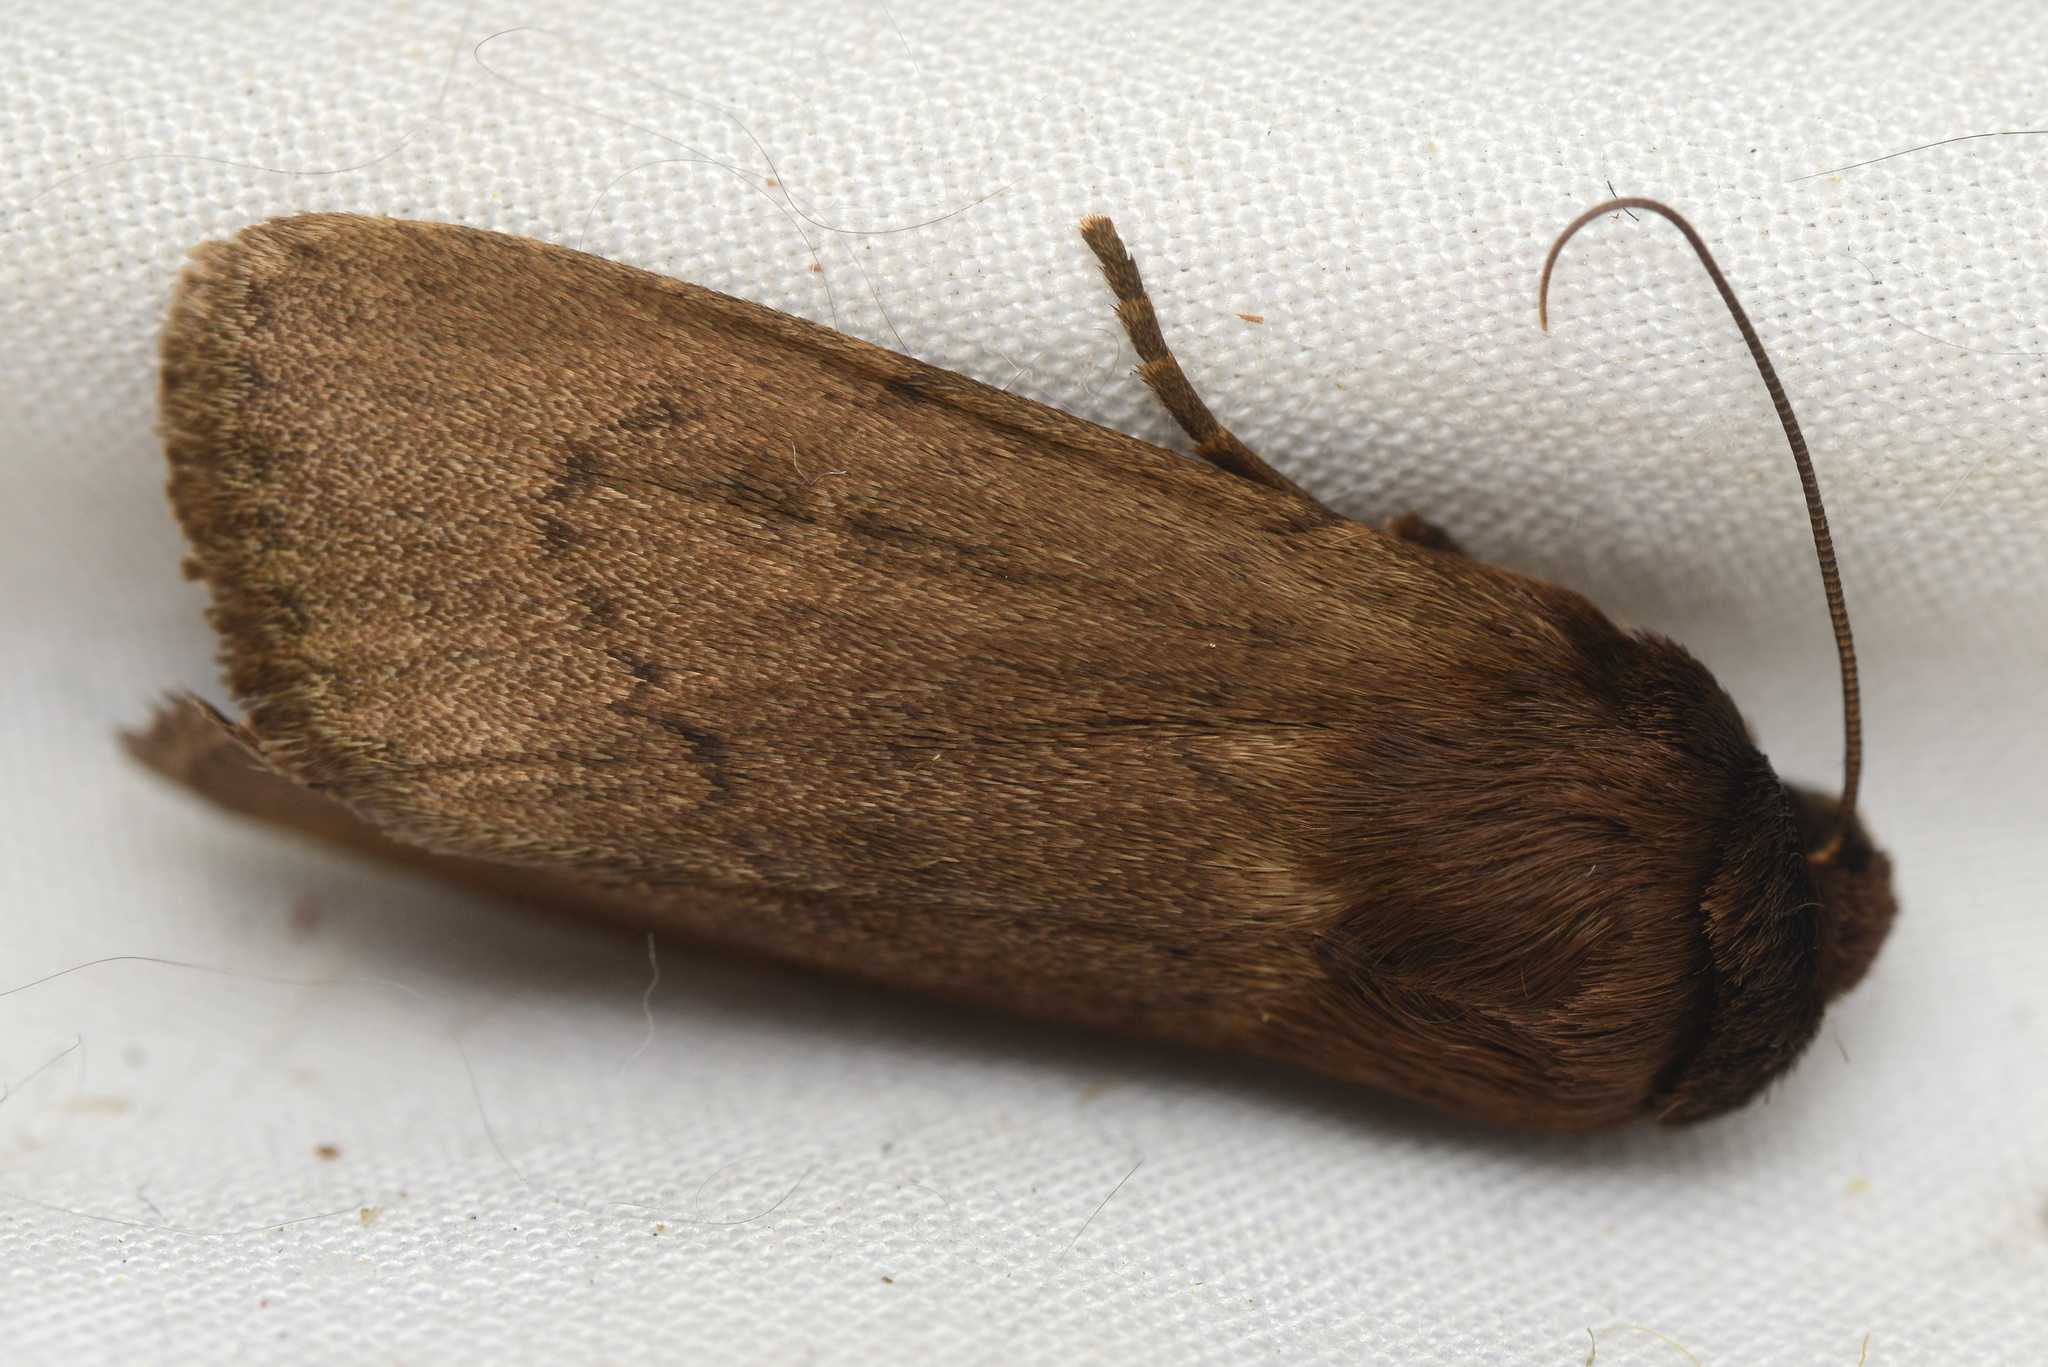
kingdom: Animalia
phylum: Arthropoda
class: Insecta
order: Lepidoptera
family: Noctuidae
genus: Bityla
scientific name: Bityla defigurata
